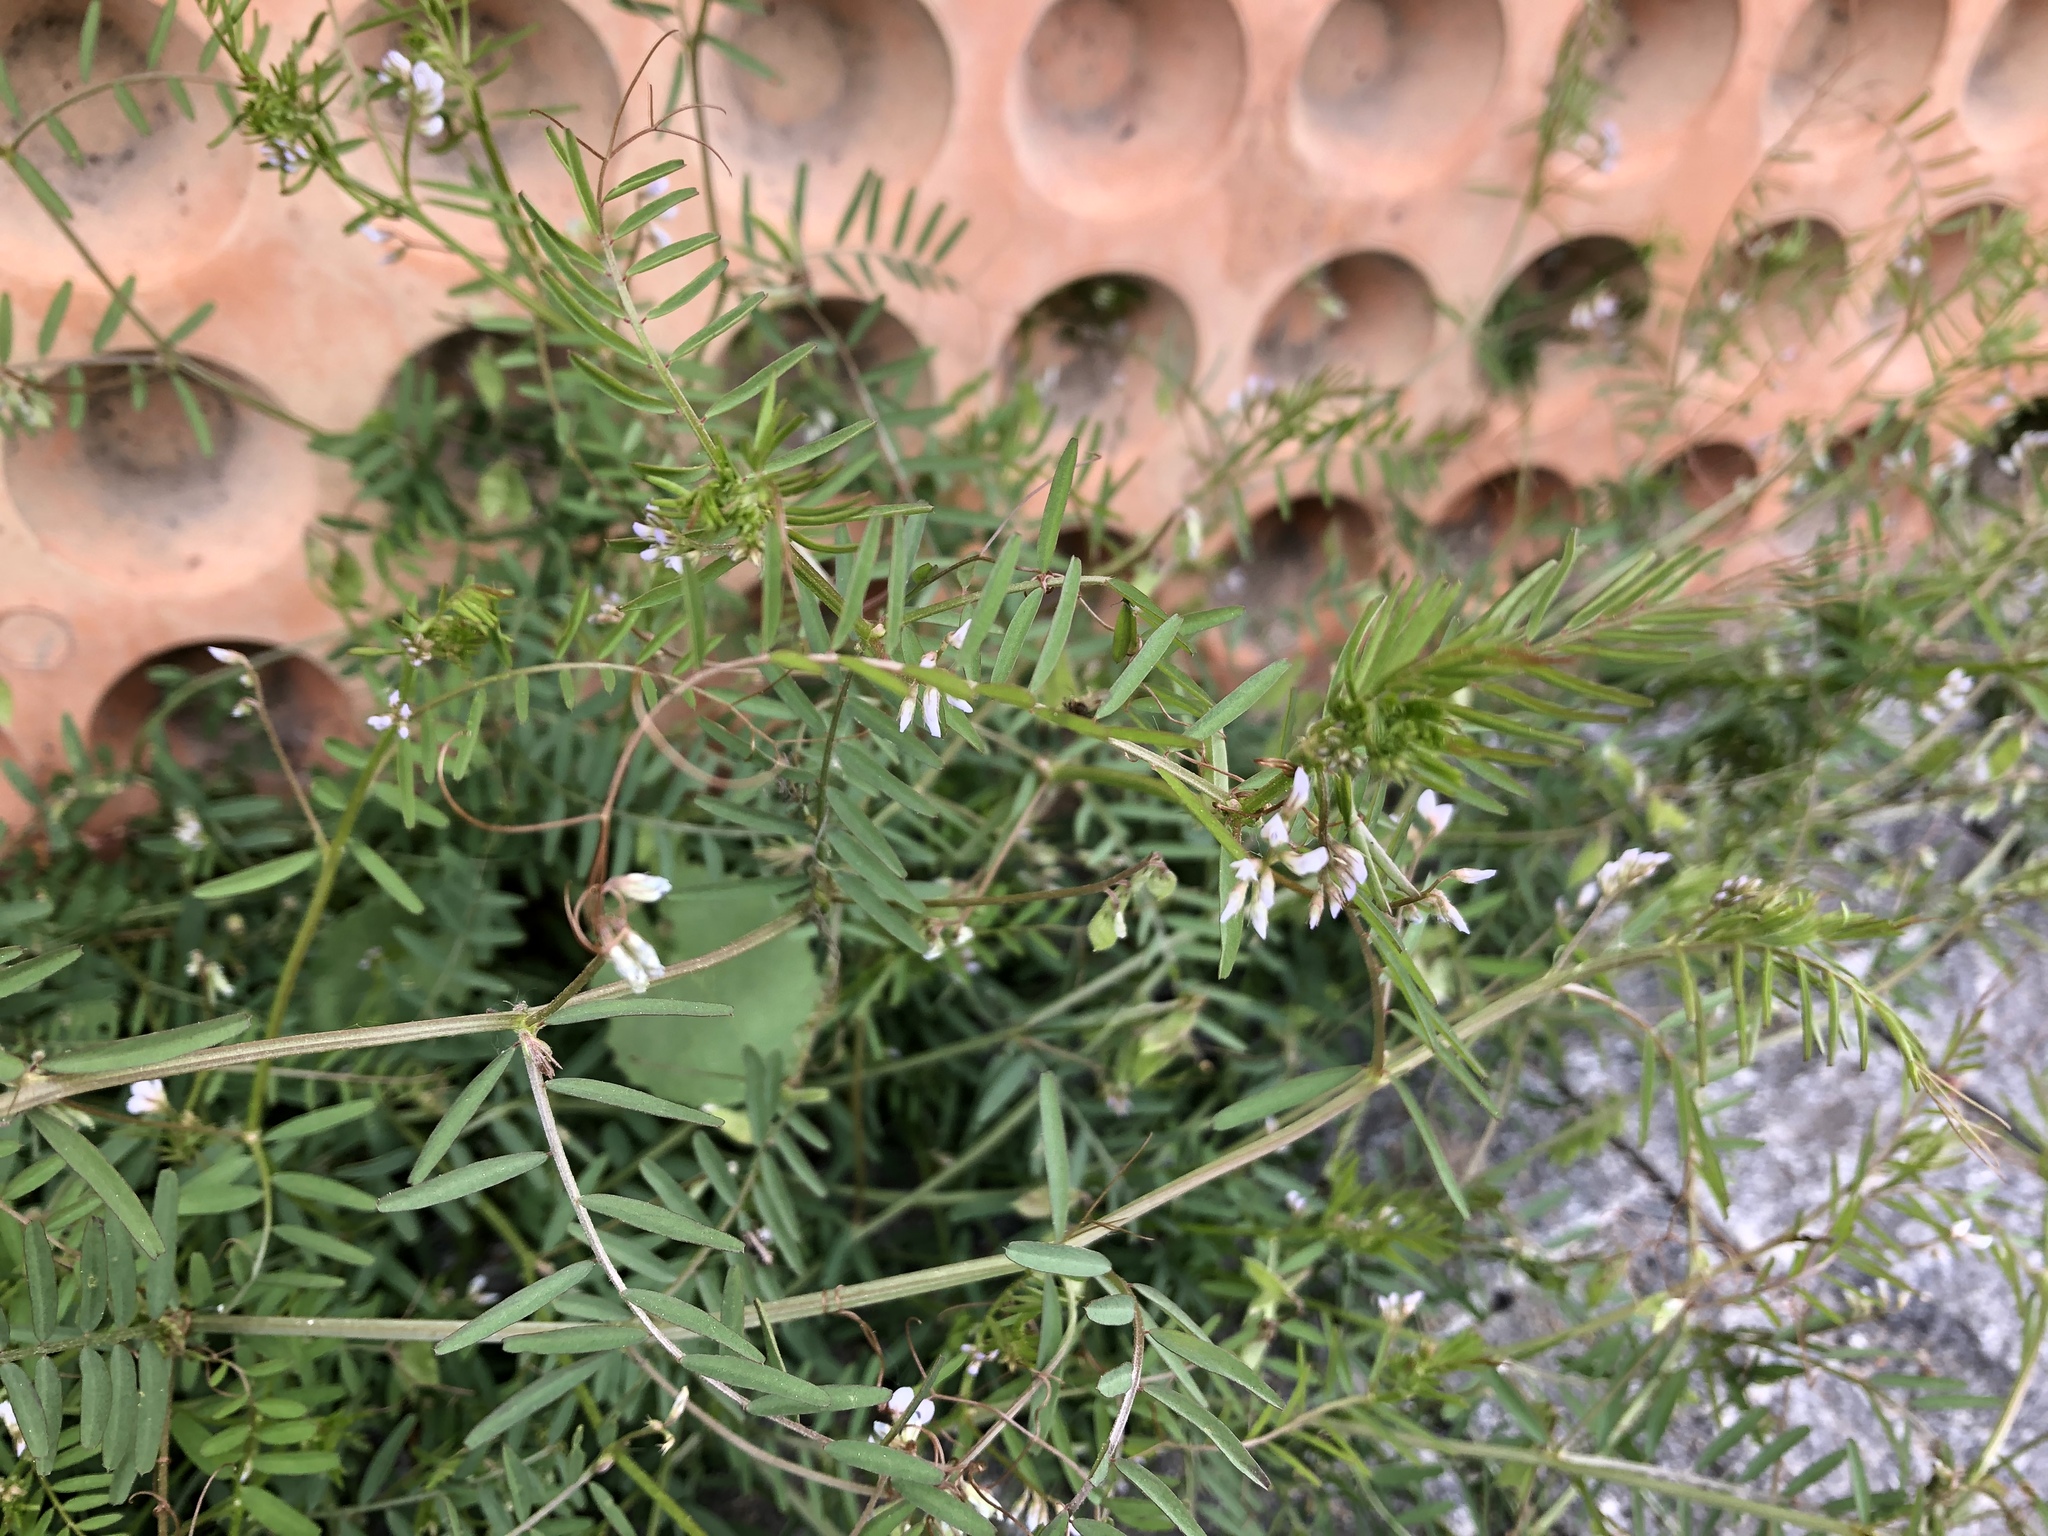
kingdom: Plantae
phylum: Tracheophyta
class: Magnoliopsida
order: Fabales
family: Fabaceae
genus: Vicia
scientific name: Vicia hirsuta
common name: Tiny vetch
